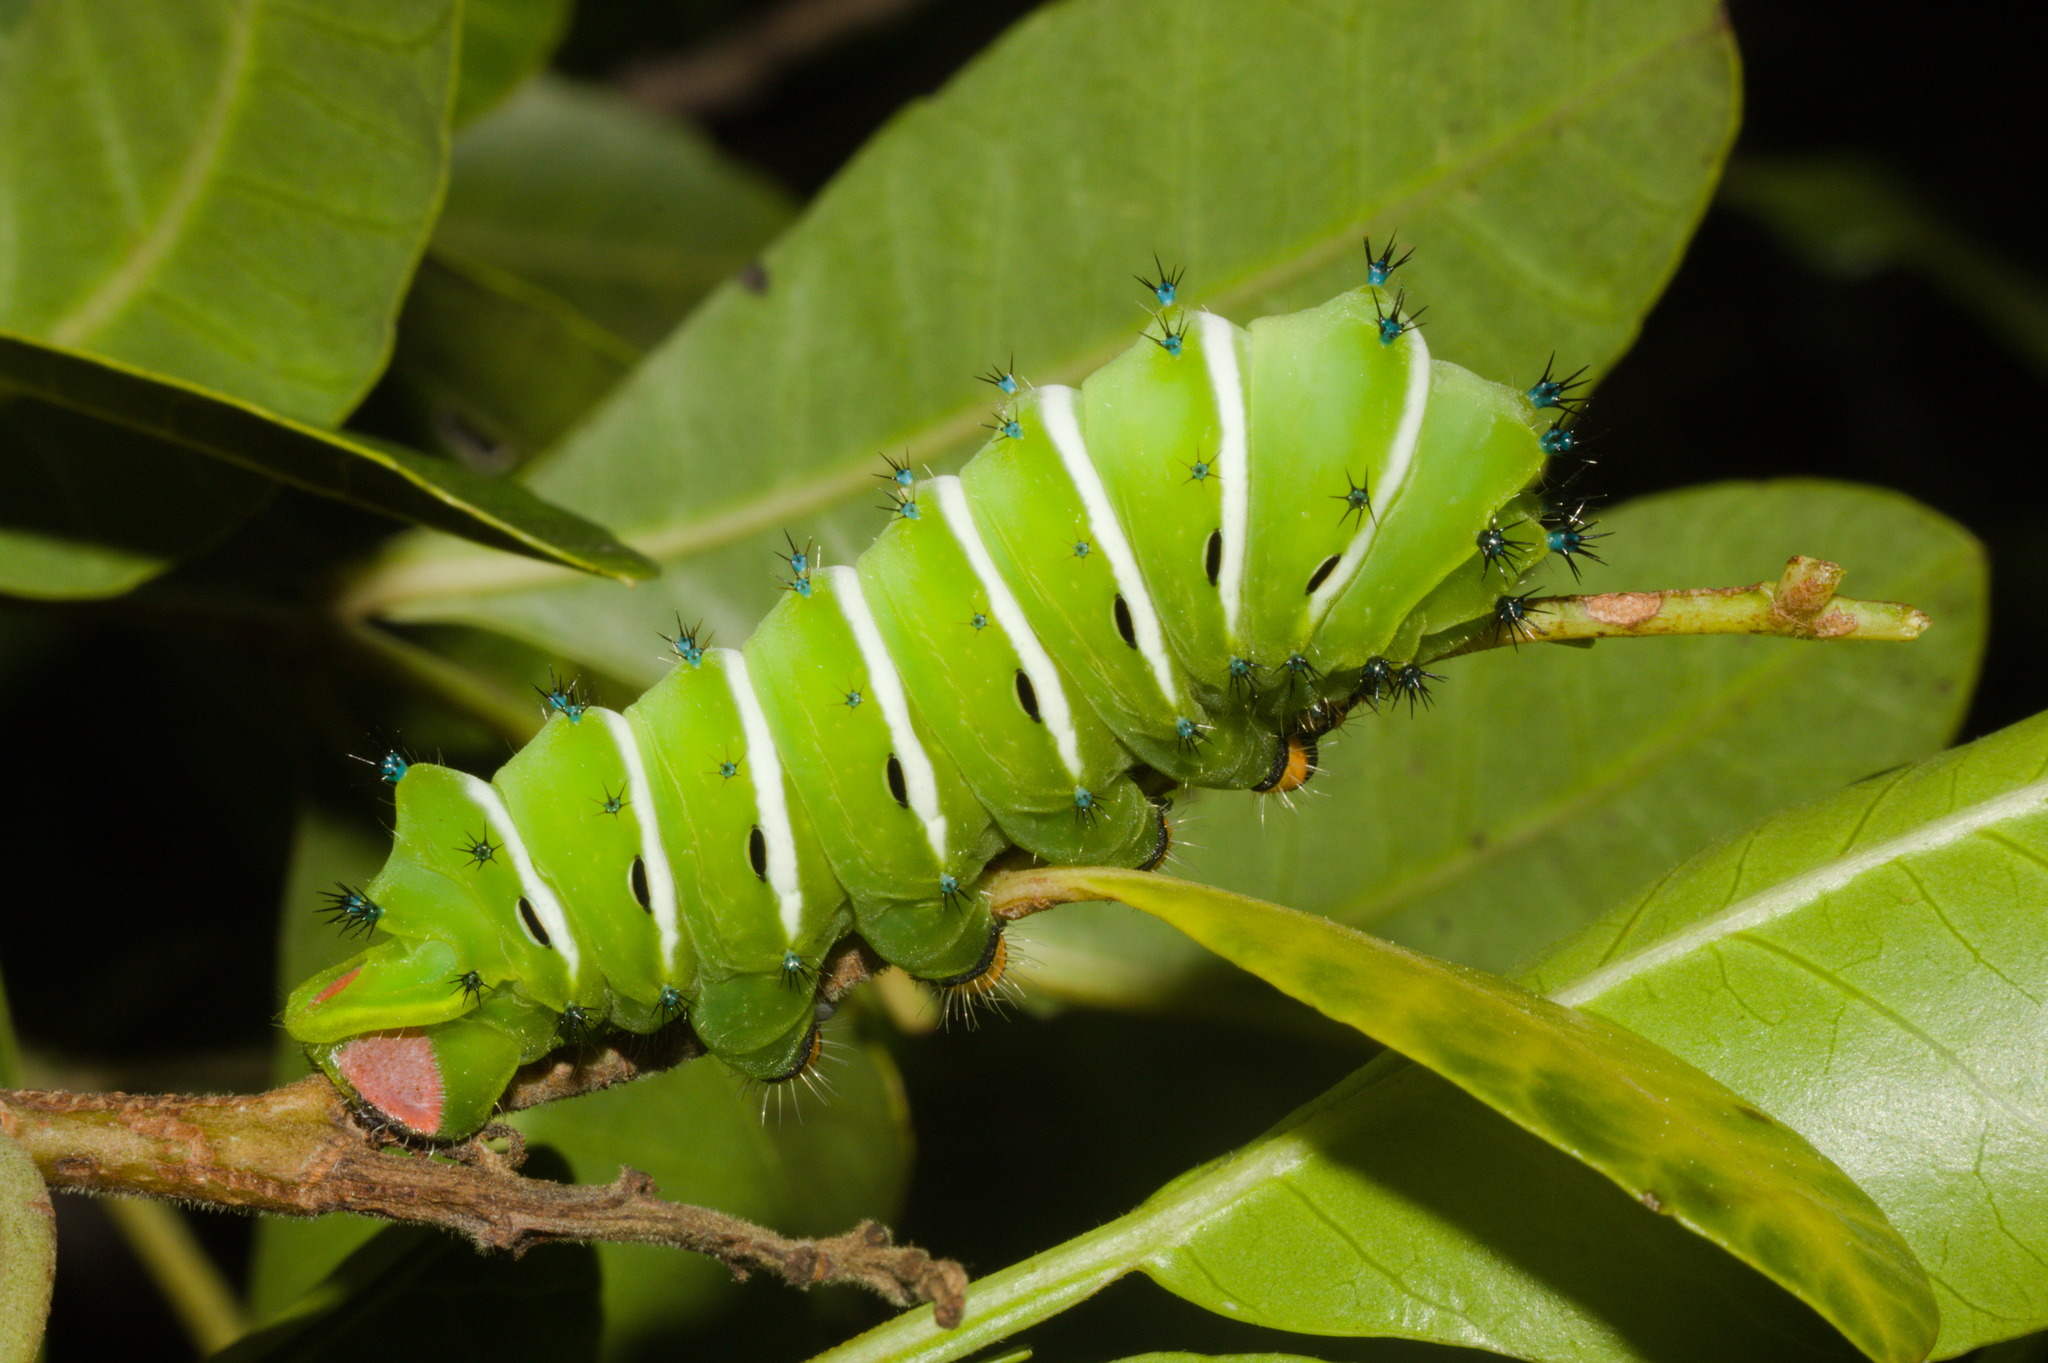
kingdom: Animalia
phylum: Arthropoda
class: Insecta
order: Lepidoptera
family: Saturniidae
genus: Rothschildia
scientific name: Rothschildia jacobaeae
